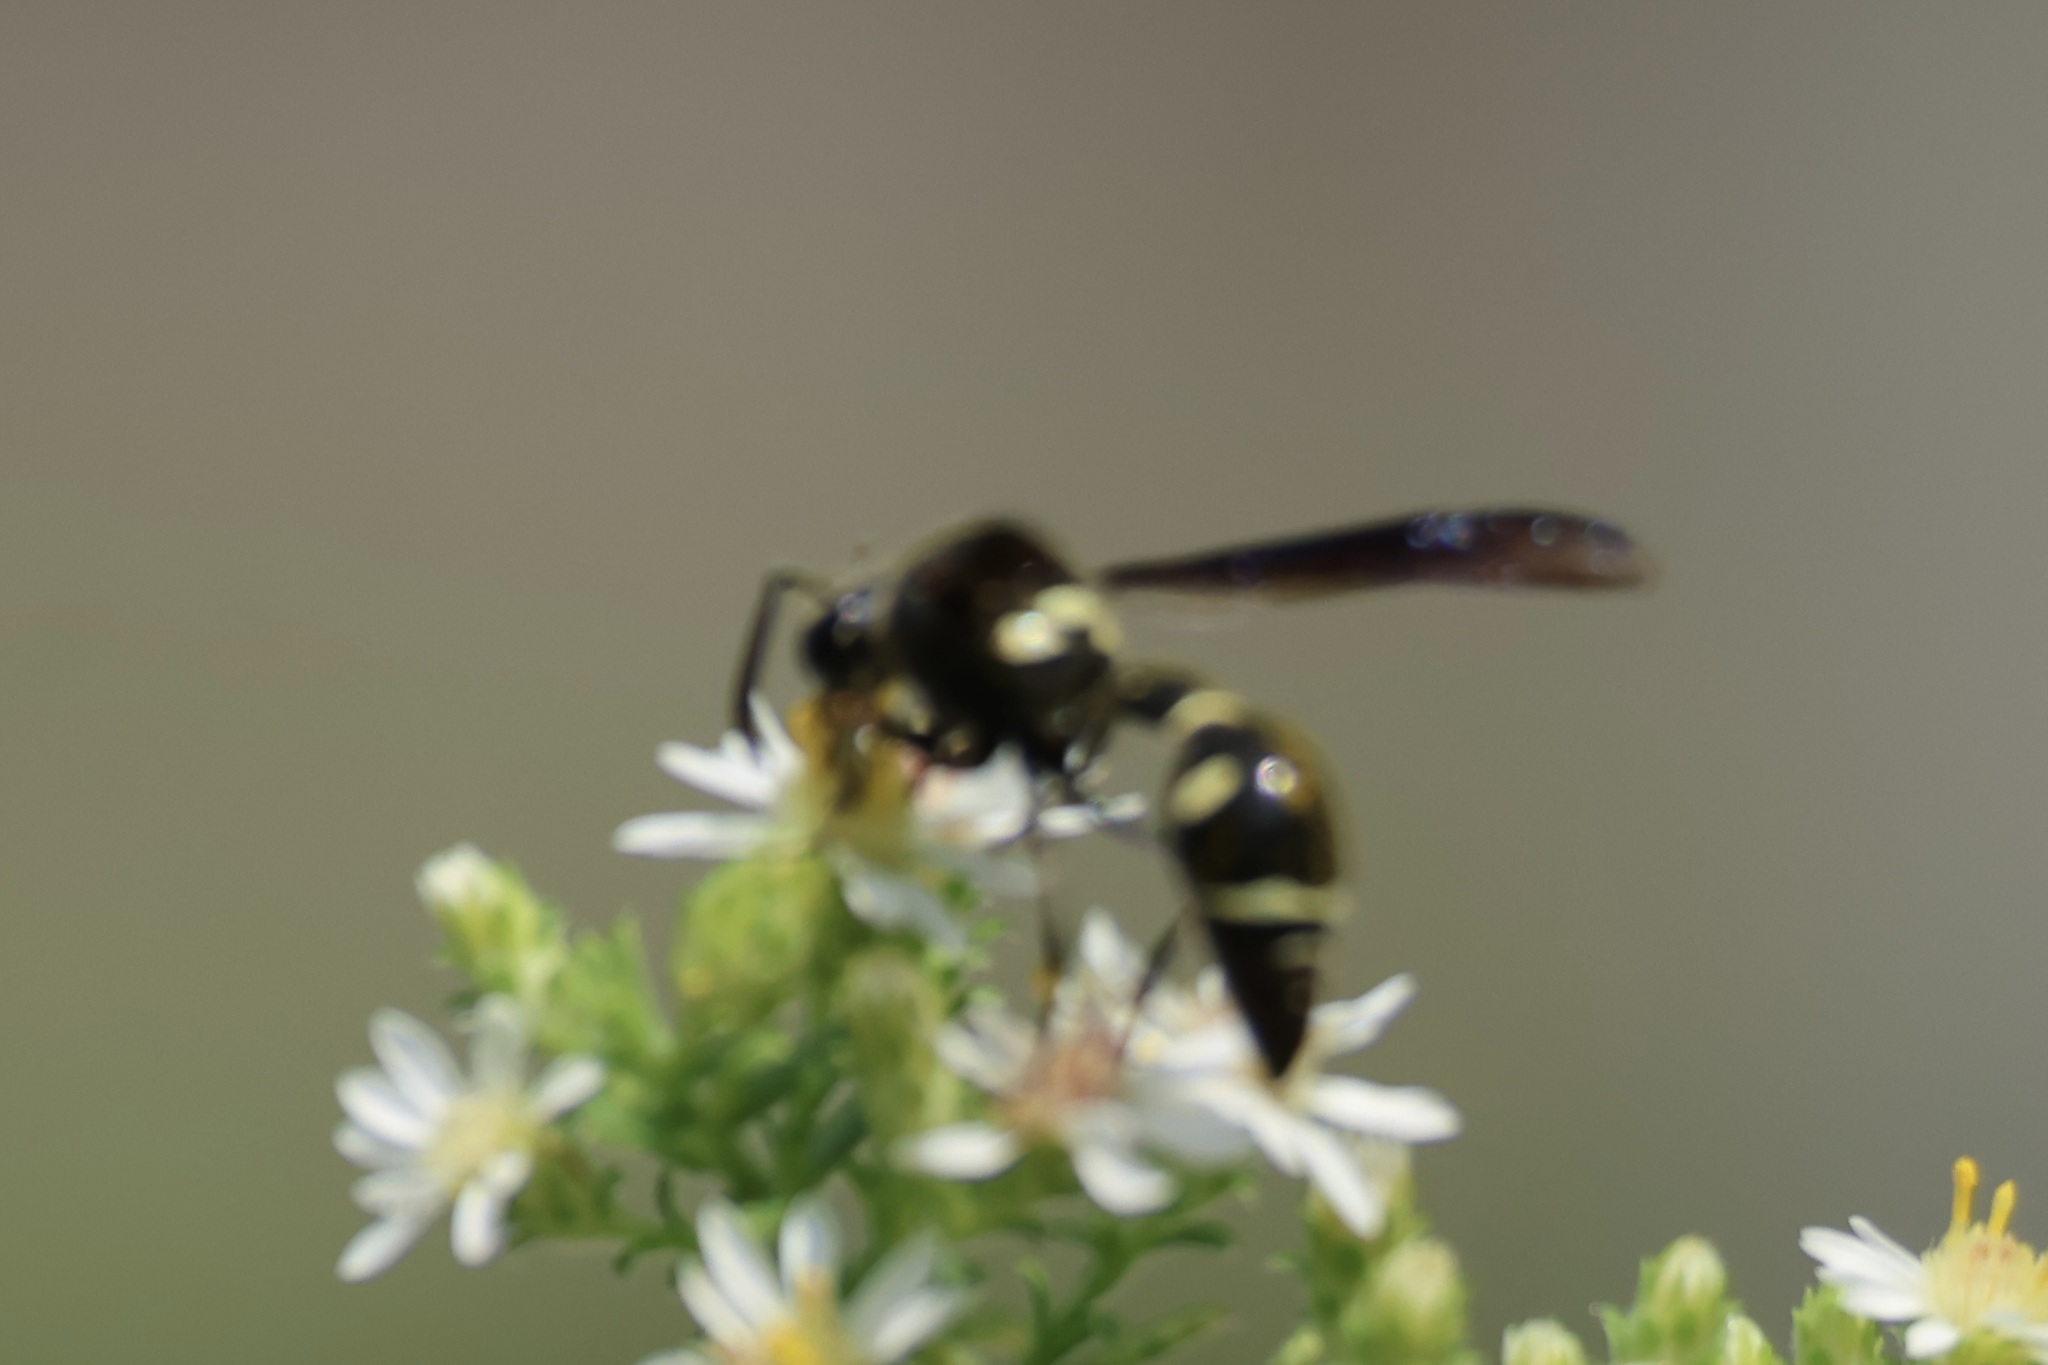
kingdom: Animalia
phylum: Arthropoda
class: Insecta
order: Hymenoptera
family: Vespidae
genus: Eumenes
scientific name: Eumenes fraternus
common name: Fraternal potter wasp
